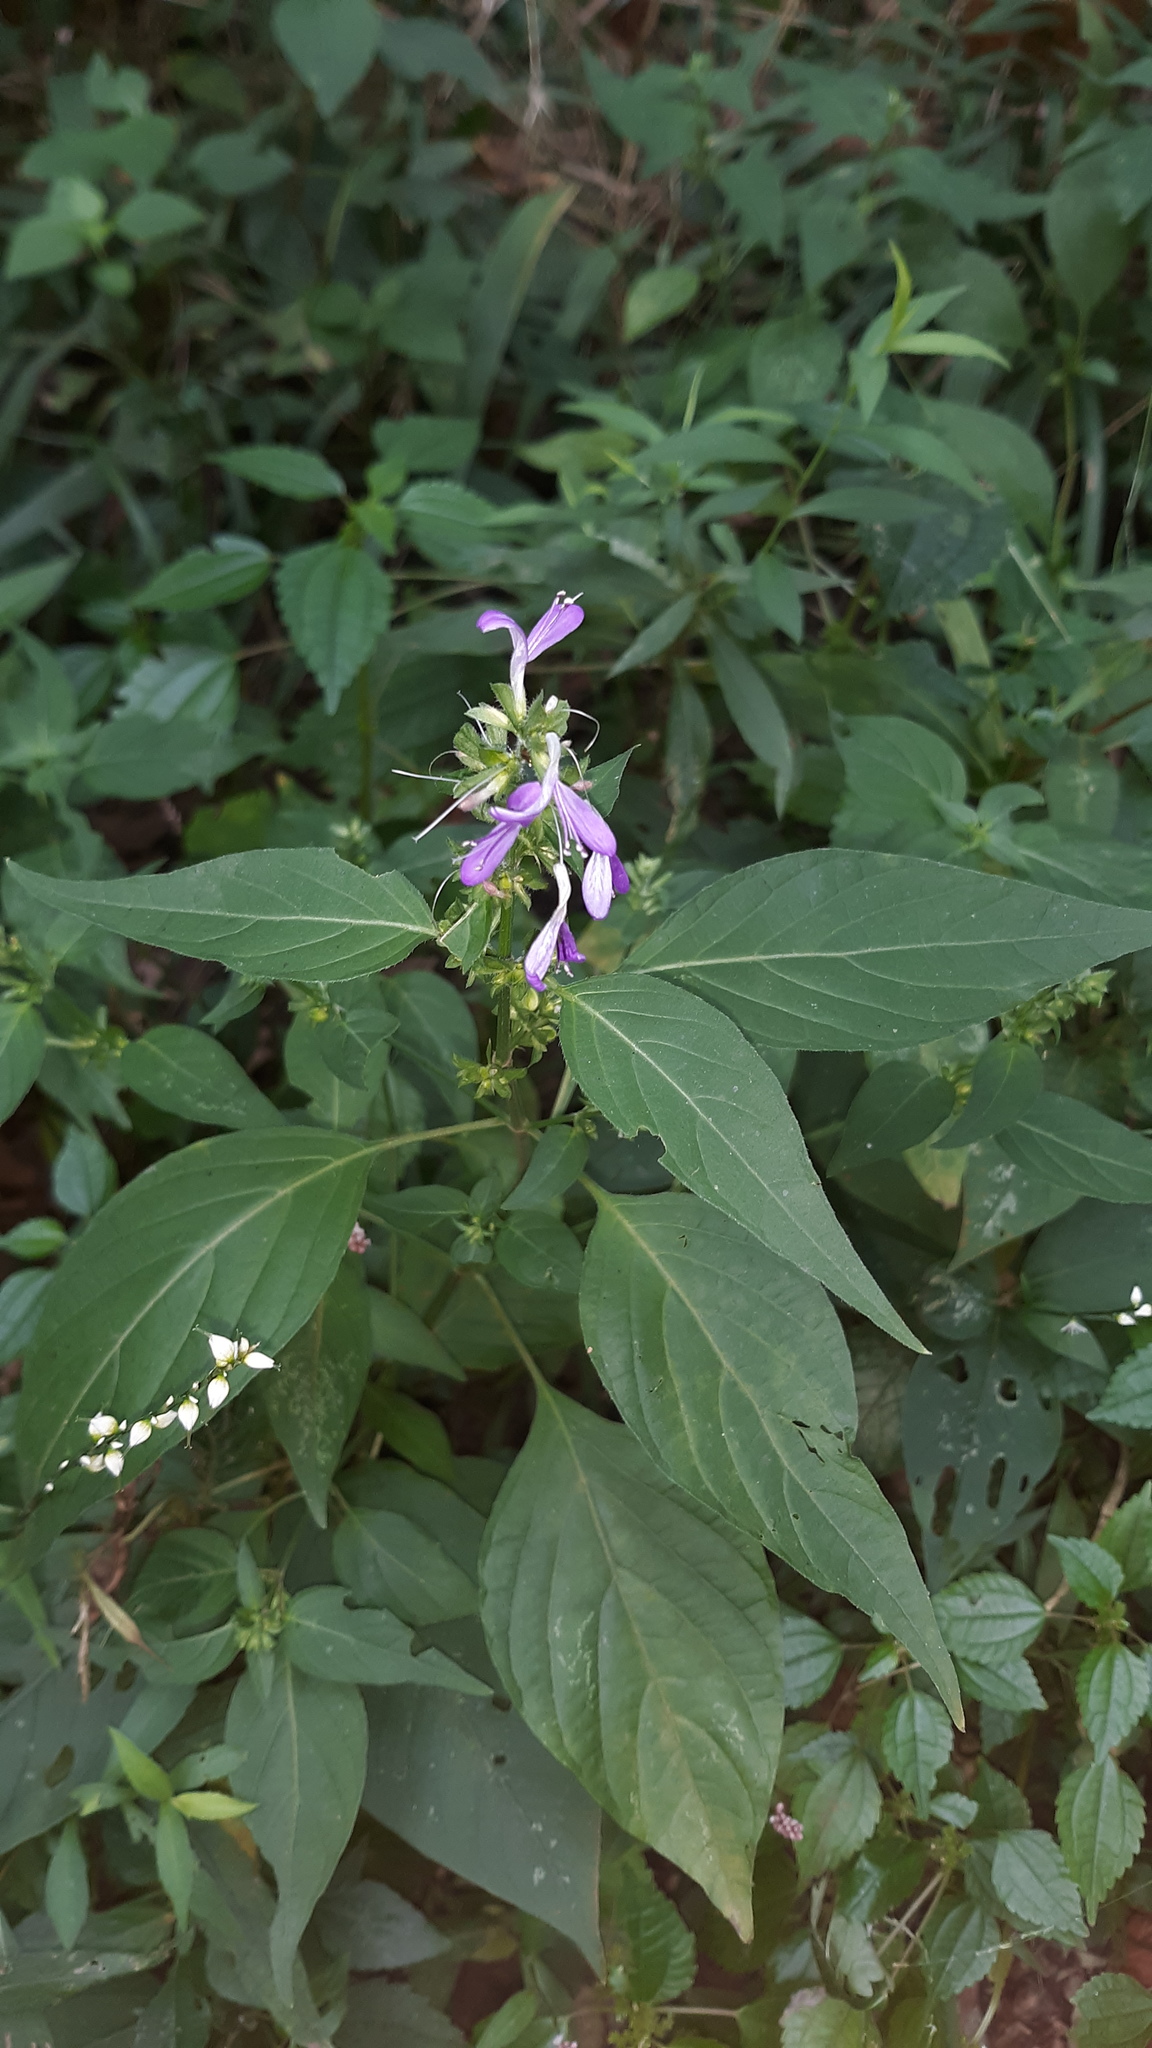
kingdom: Plantae
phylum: Tracheophyta
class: Magnoliopsida
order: Lamiales
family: Acanthaceae
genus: Dicliptera
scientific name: Dicliptera brachiata
